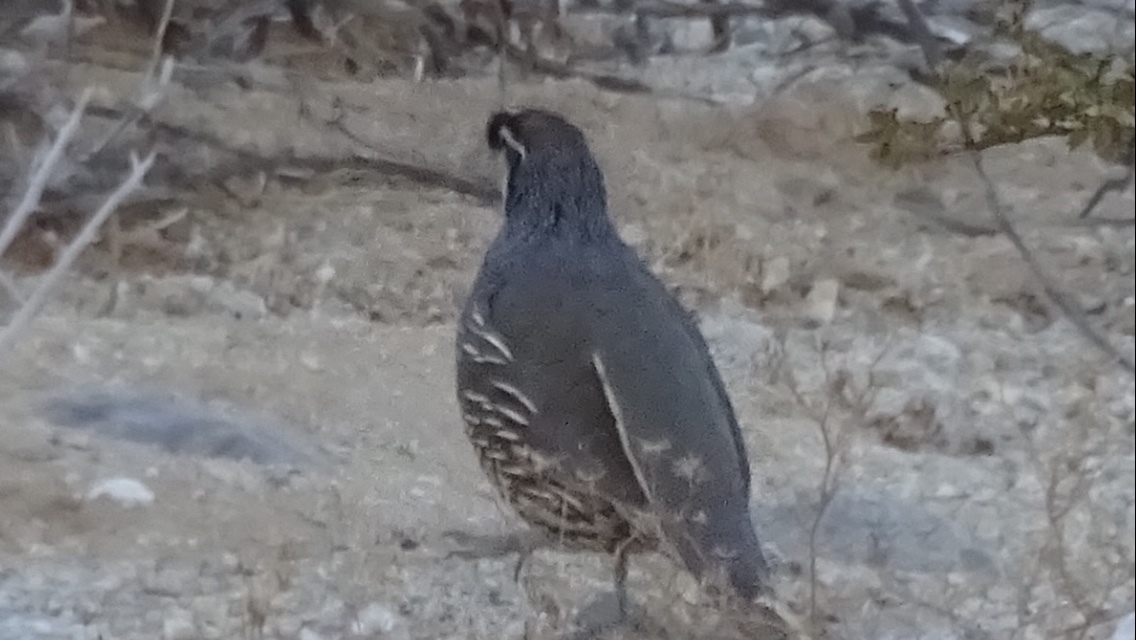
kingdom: Animalia
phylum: Chordata
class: Aves
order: Galliformes
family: Odontophoridae
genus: Callipepla
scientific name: Callipepla californica
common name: California quail
